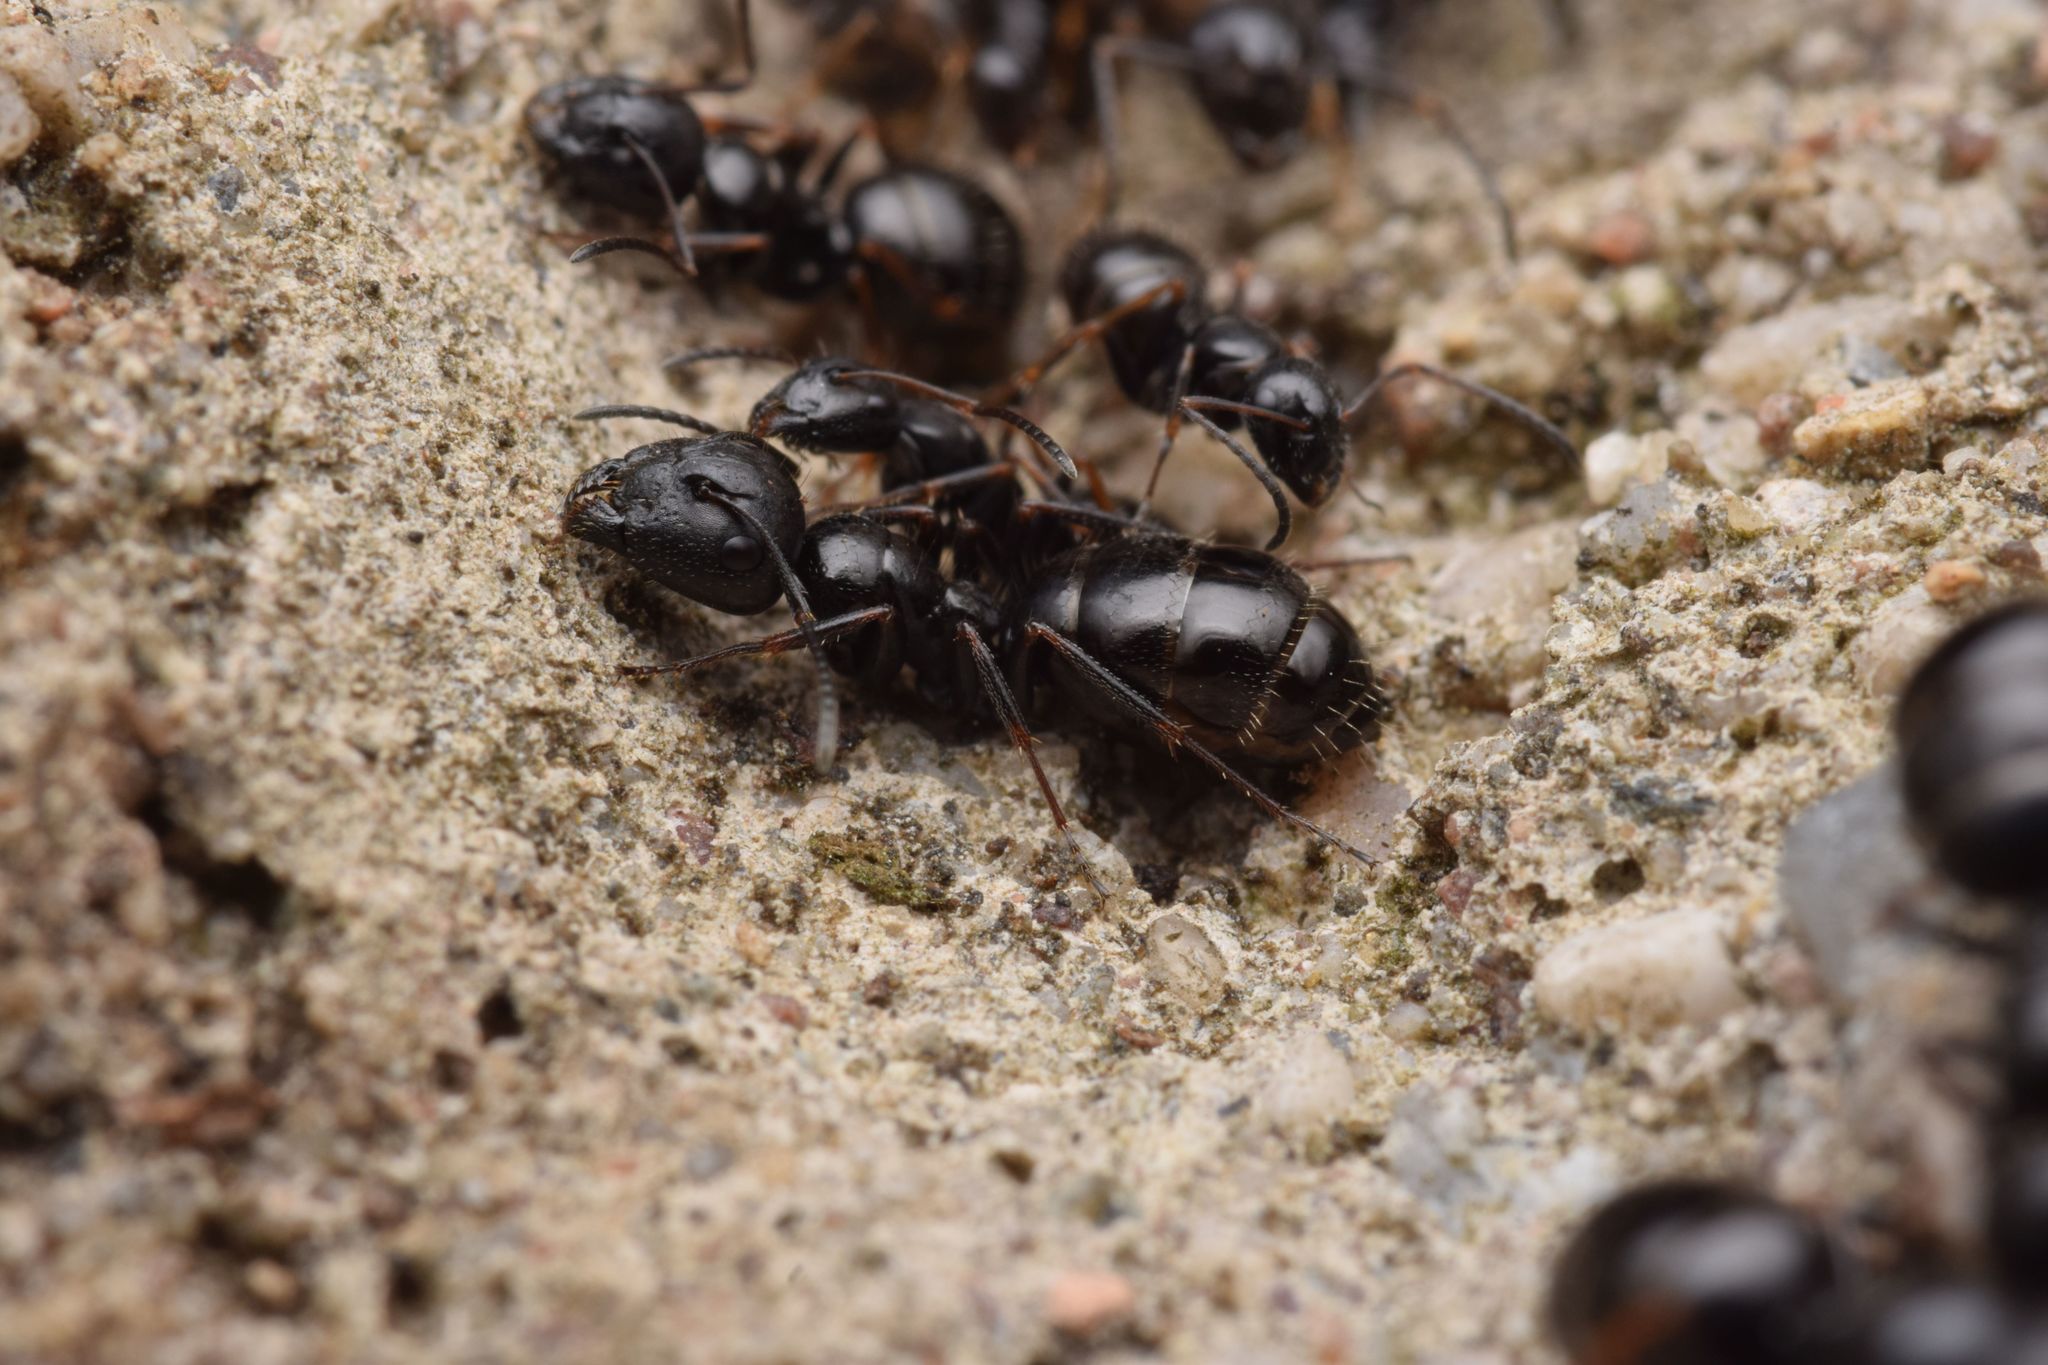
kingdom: Animalia
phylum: Arthropoda
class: Insecta
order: Hymenoptera
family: Formicidae
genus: Camponotus
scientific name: Camponotus piceus
